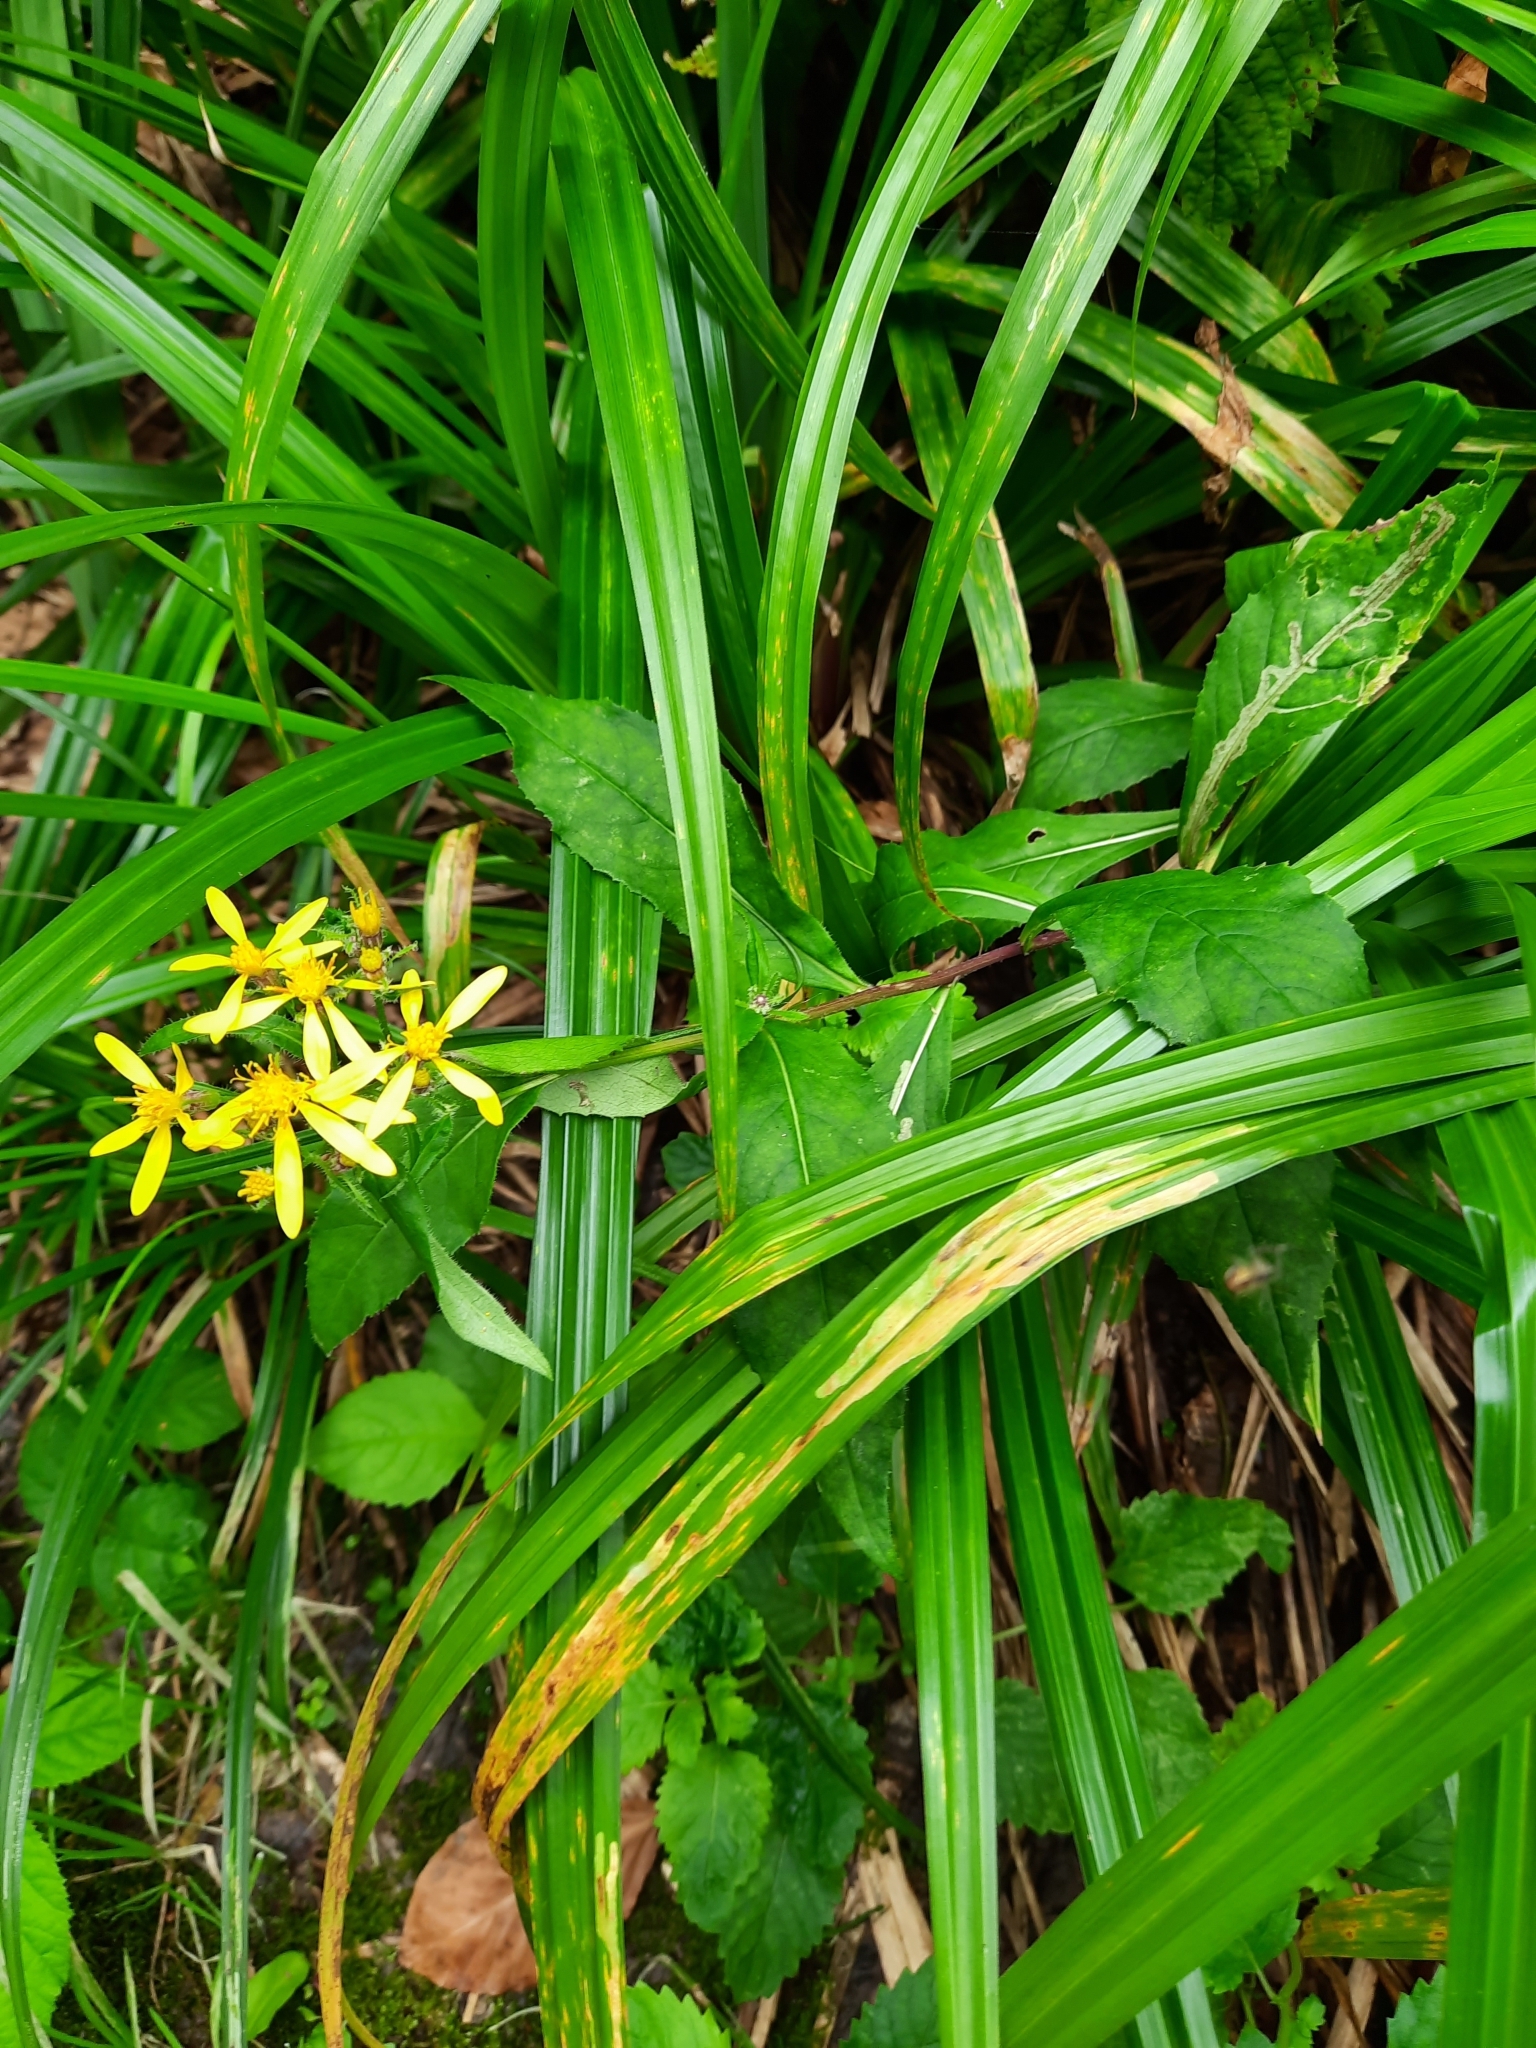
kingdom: Plantae
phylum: Tracheophyta
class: Magnoliopsida
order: Asterales
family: Asteraceae
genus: Senecio
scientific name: Senecio propinquus
